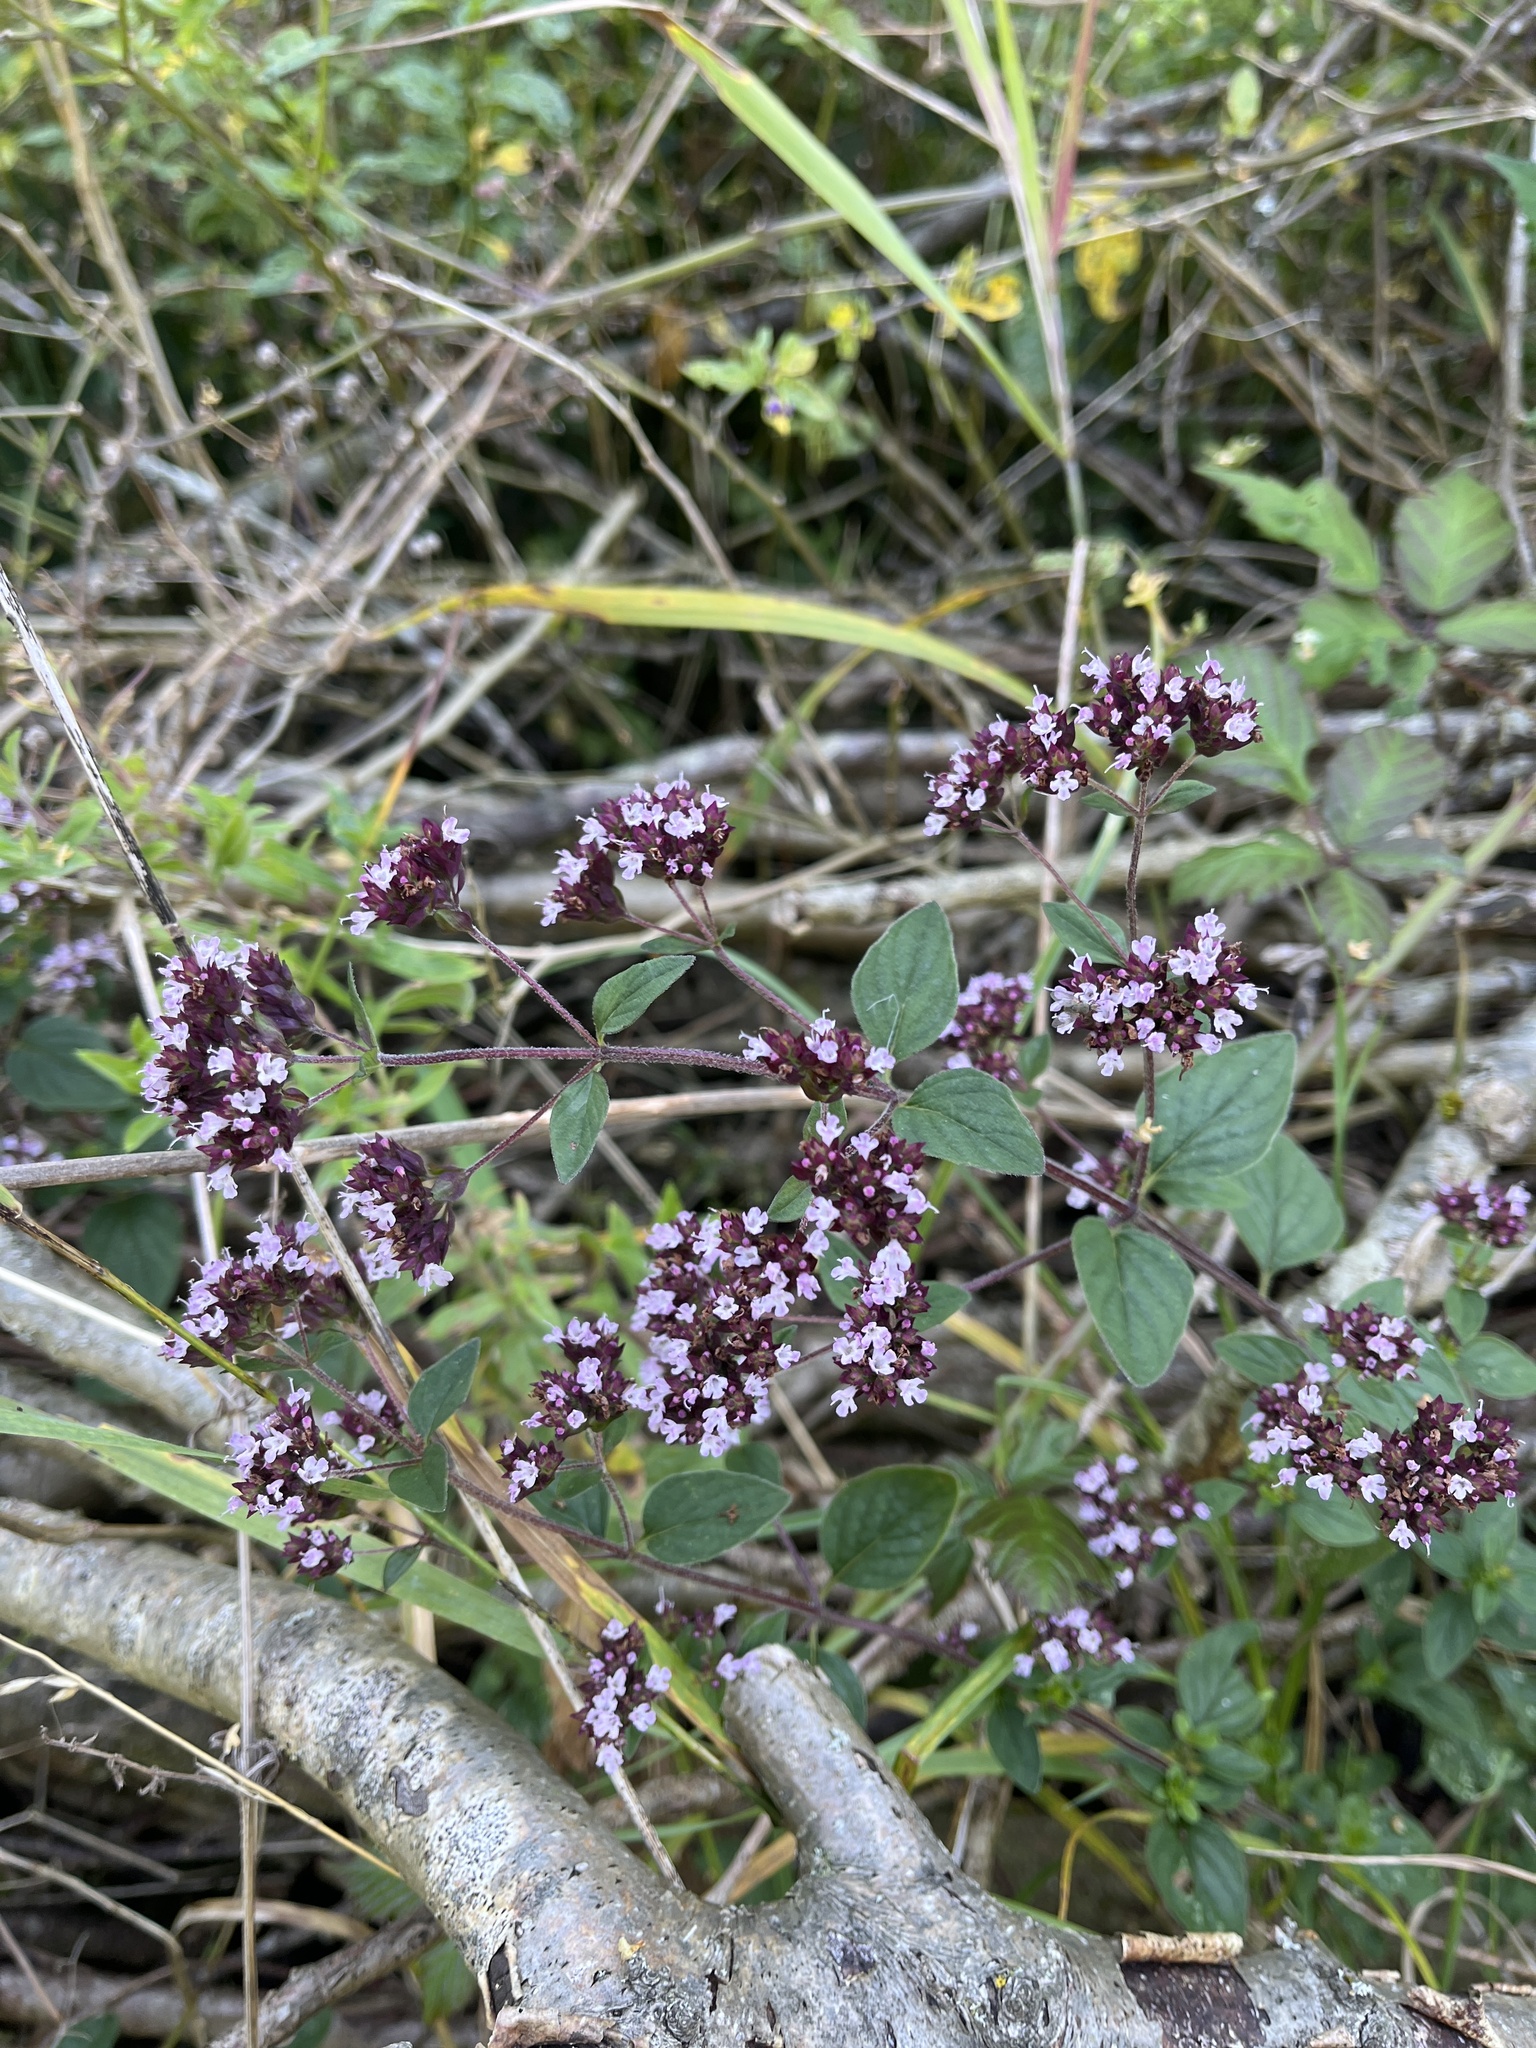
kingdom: Plantae
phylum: Tracheophyta
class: Magnoliopsida
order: Lamiales
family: Lamiaceae
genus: Origanum
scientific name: Origanum vulgare
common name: Wild marjoram
